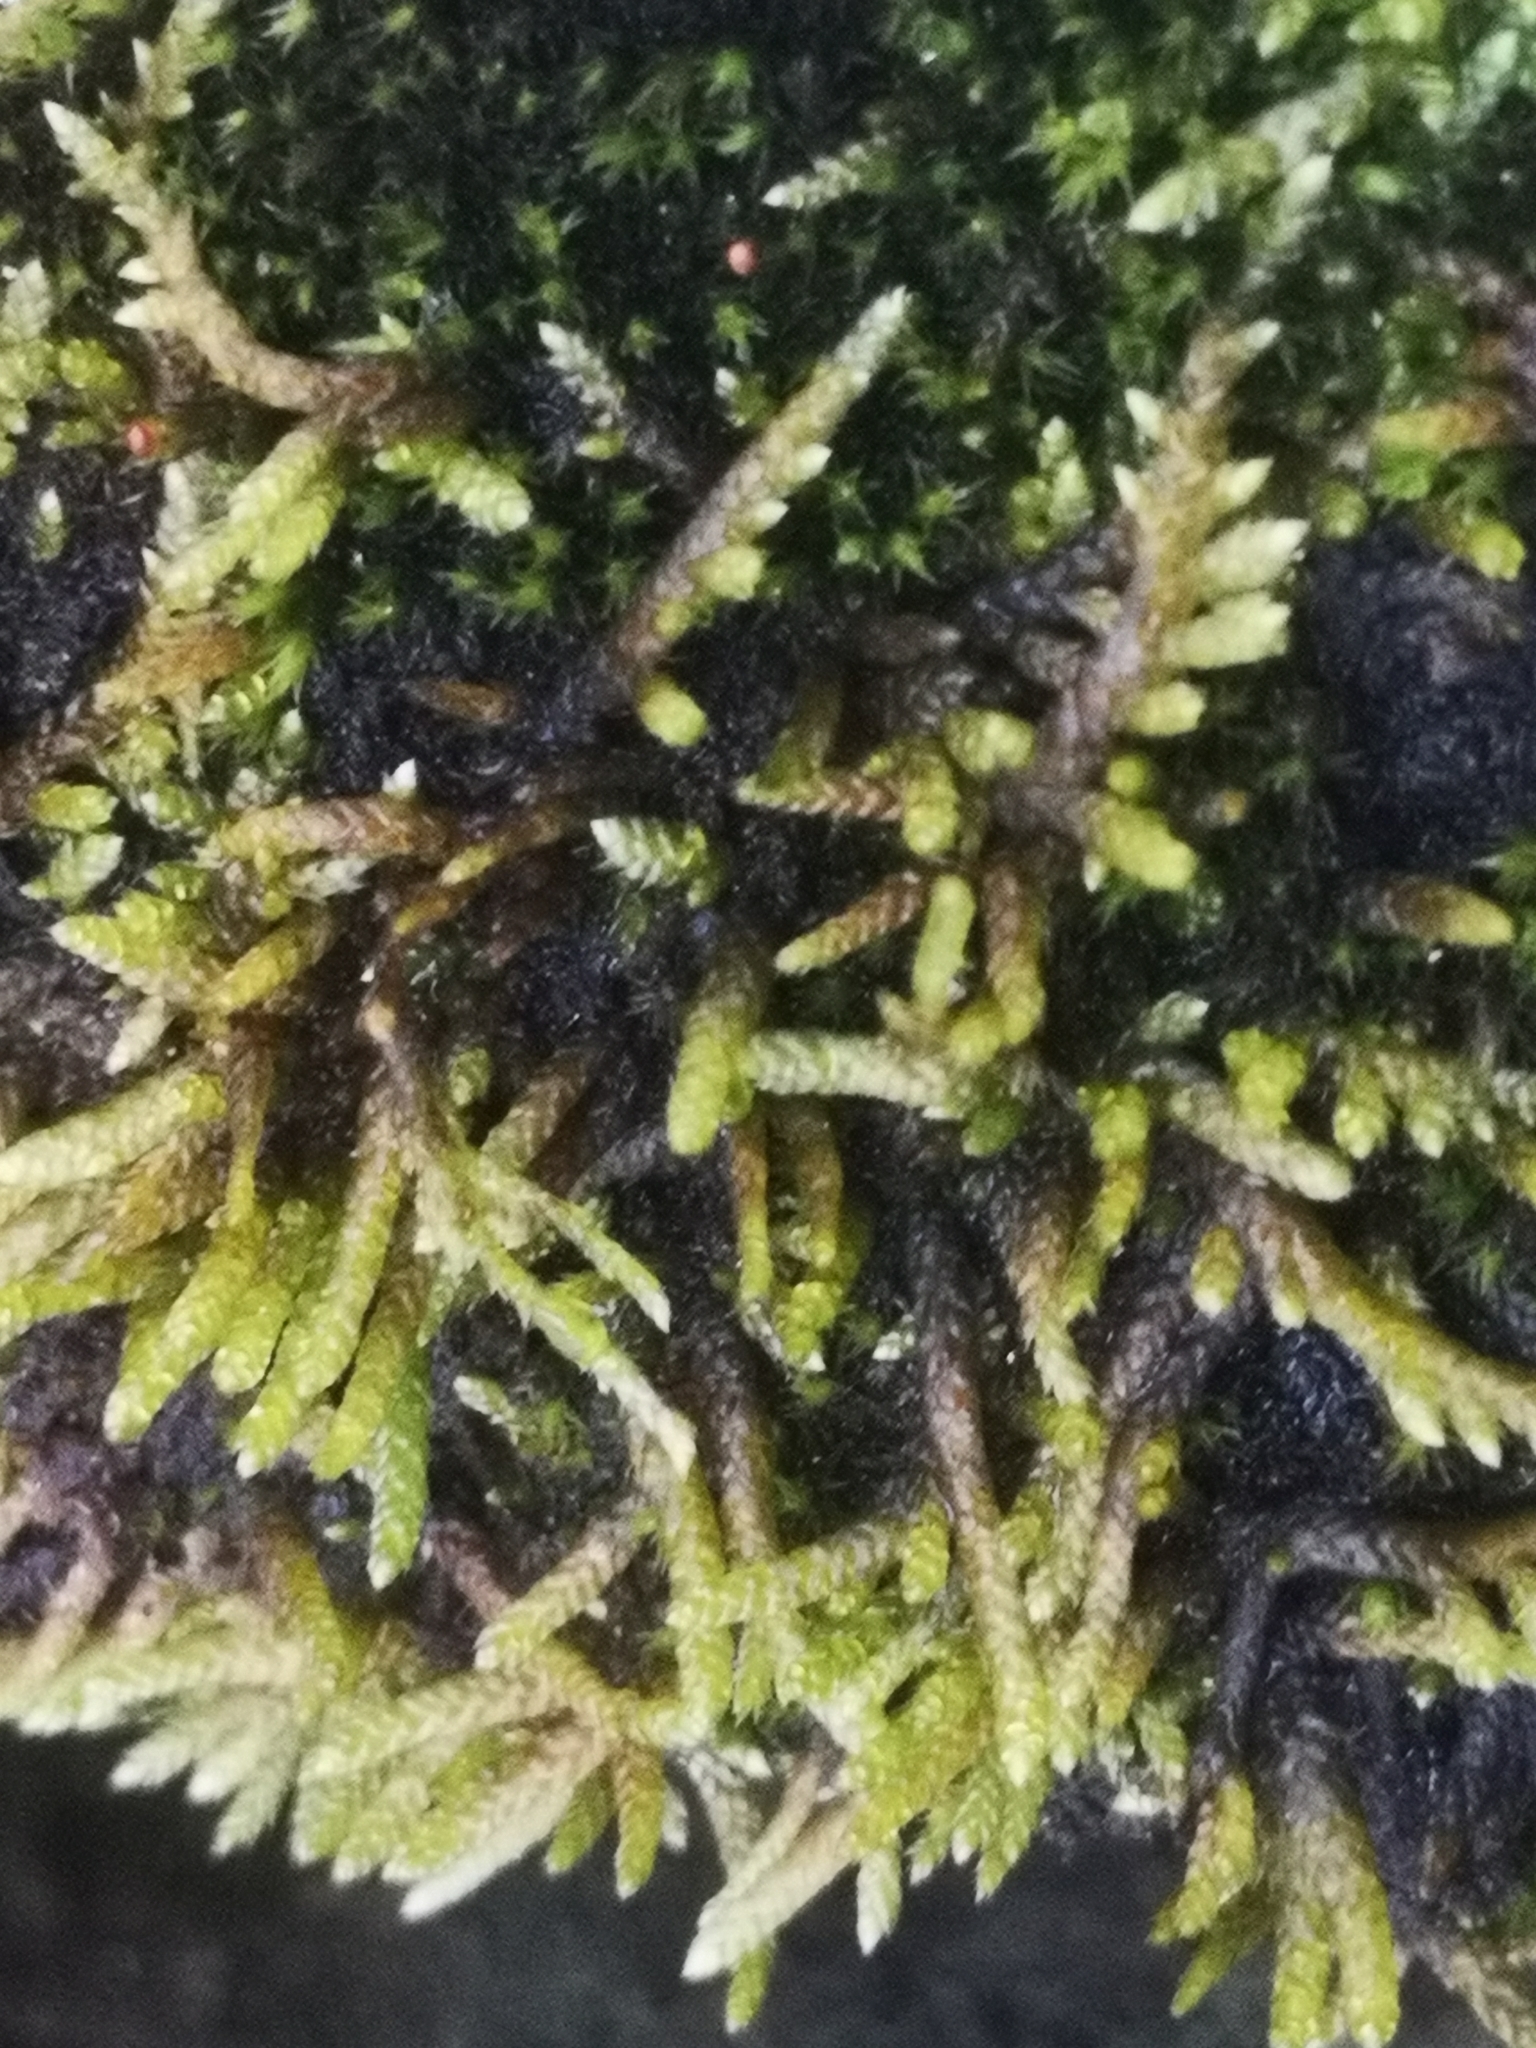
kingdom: Plantae
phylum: Bryophyta
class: Bryopsida
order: Hypnales
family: Entodontaceae
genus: Entodon
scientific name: Entodon seductrix
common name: Round-stemmed entodon moss
